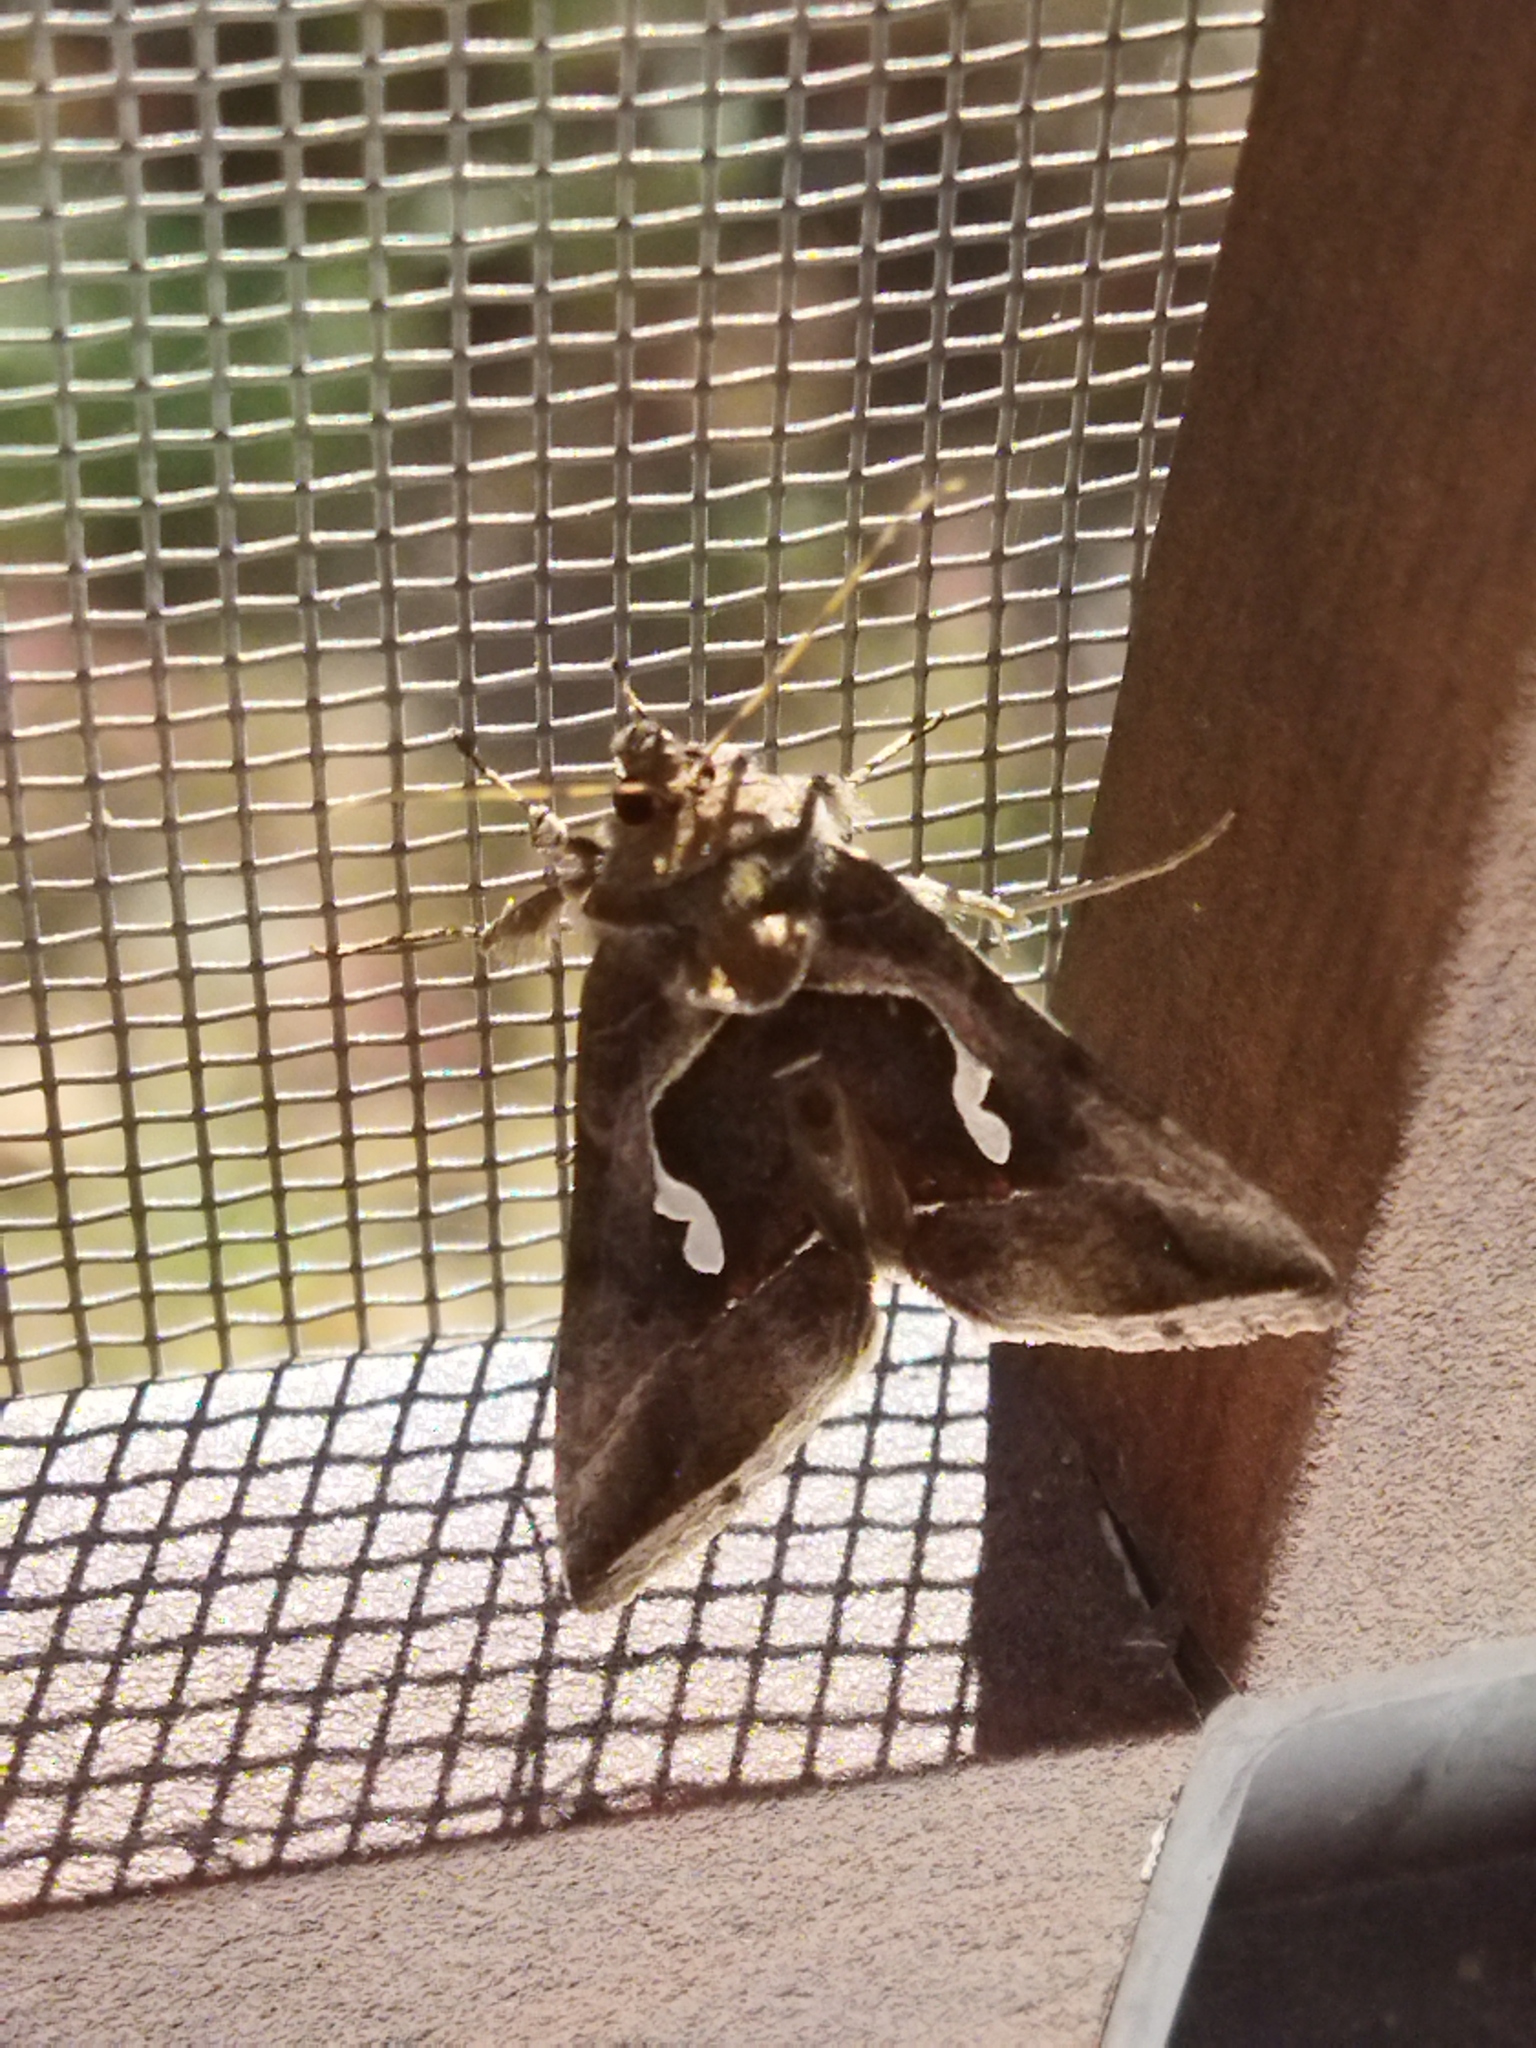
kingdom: Animalia
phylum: Arthropoda
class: Insecta
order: Lepidoptera
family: Noctuidae
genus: Macdunnoughia
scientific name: Macdunnoughia confusa
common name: Dewick's plusia
